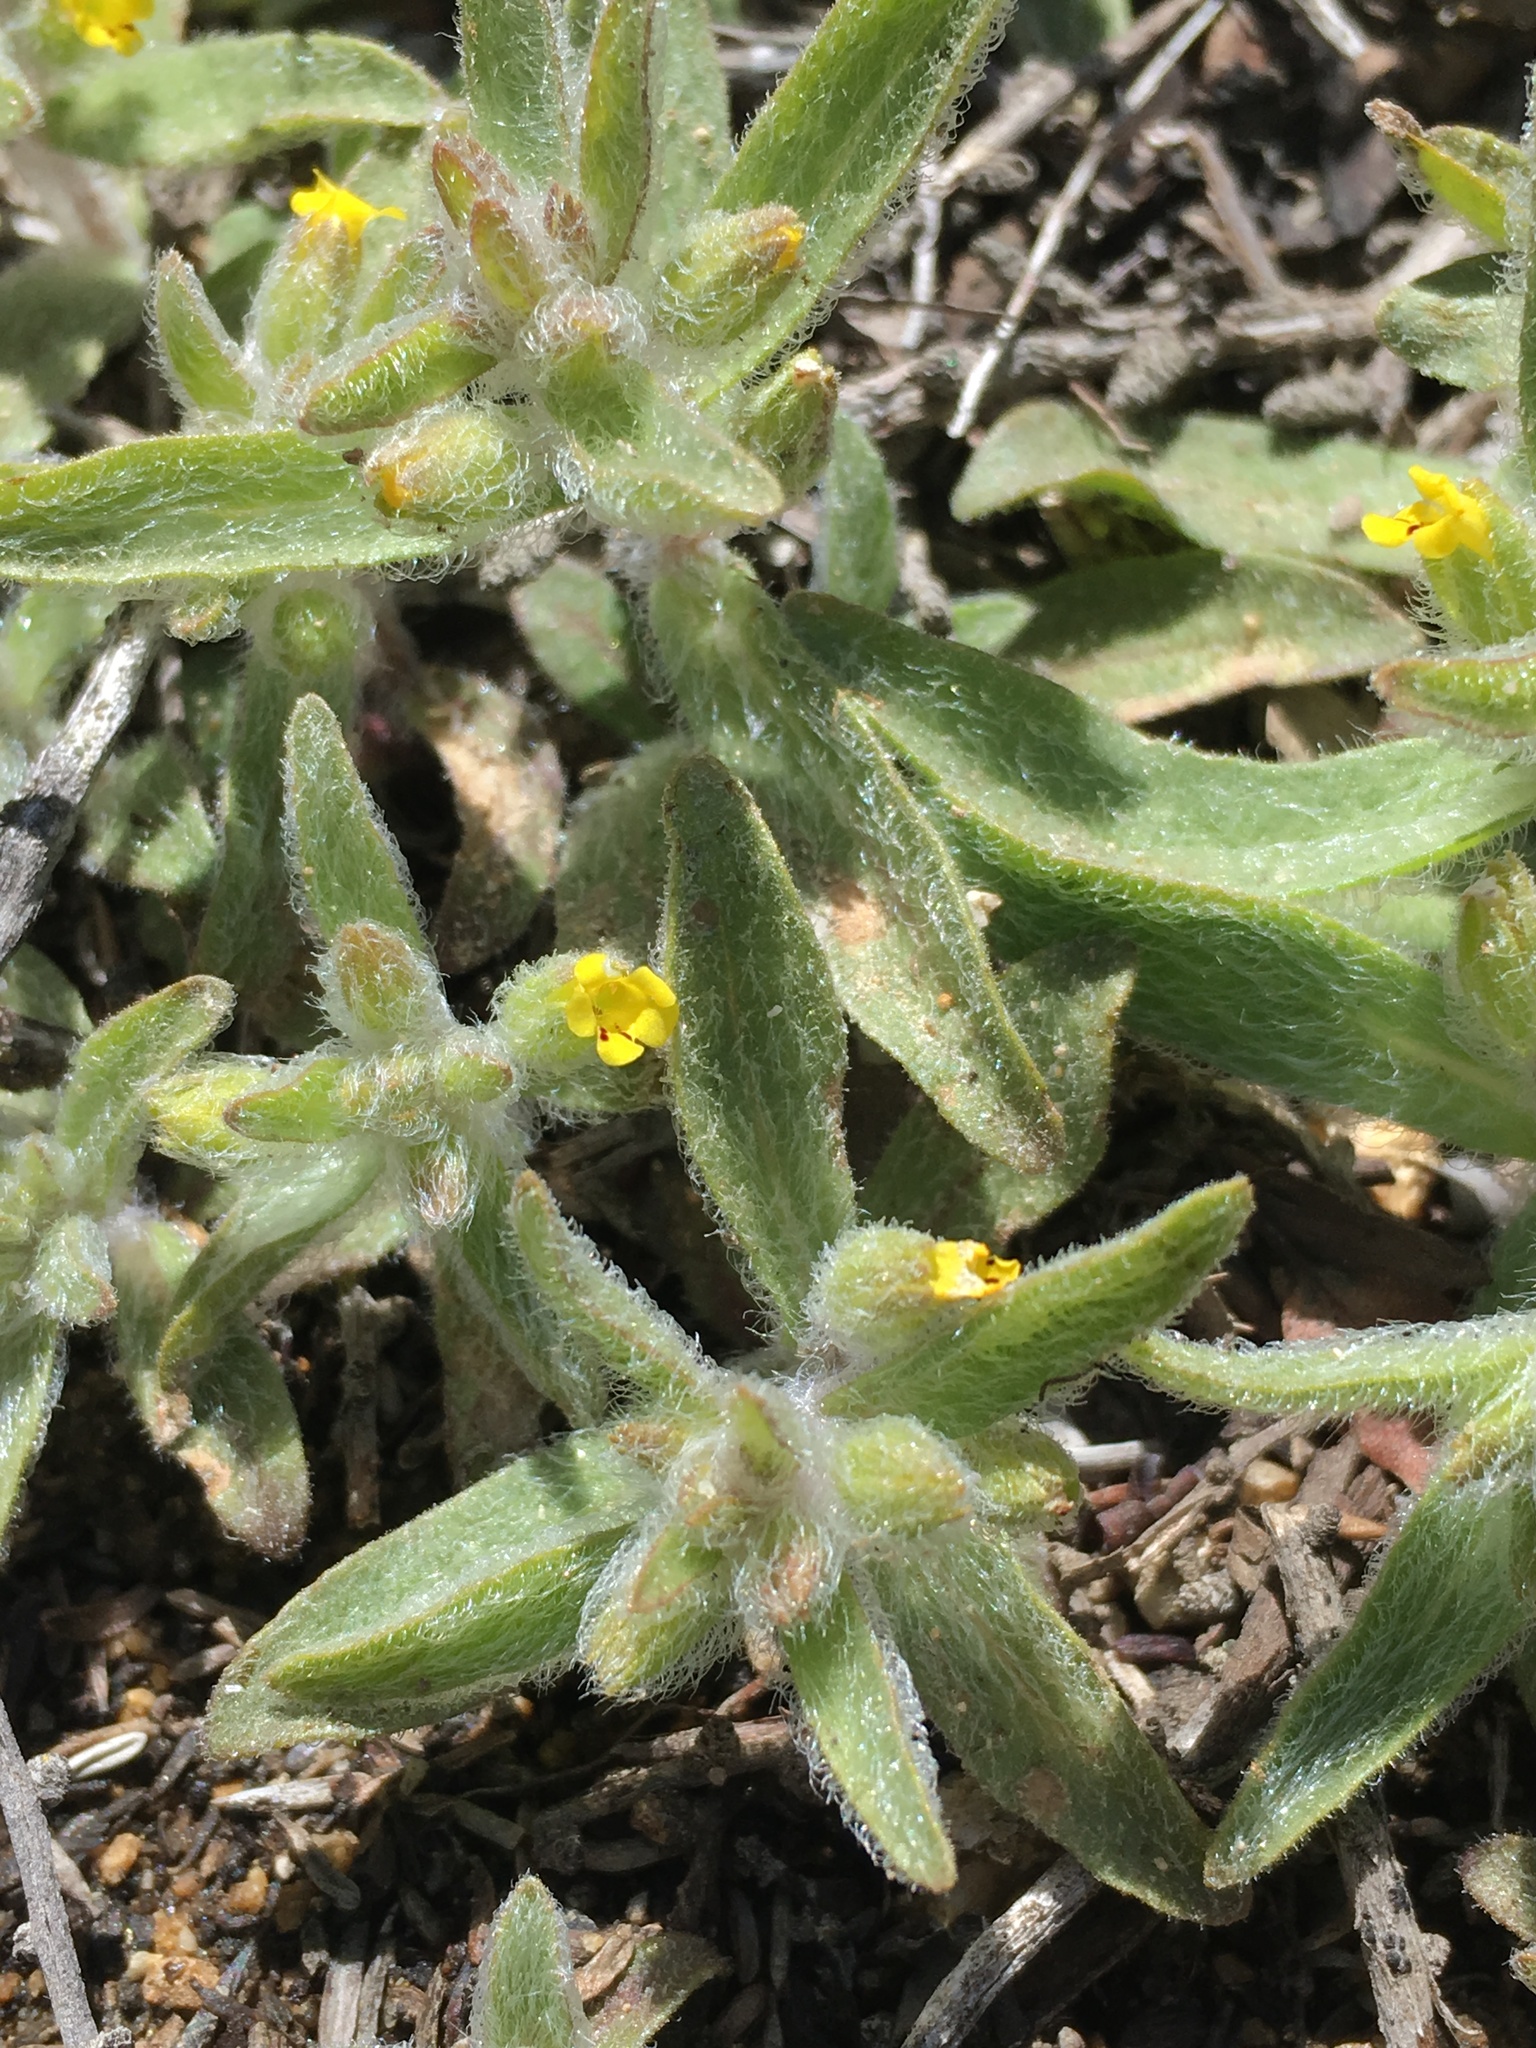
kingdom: Plantae
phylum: Tracheophyta
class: Magnoliopsida
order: Lamiales
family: Phrymaceae
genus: Mimetanthe
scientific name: Mimetanthe pilosa
